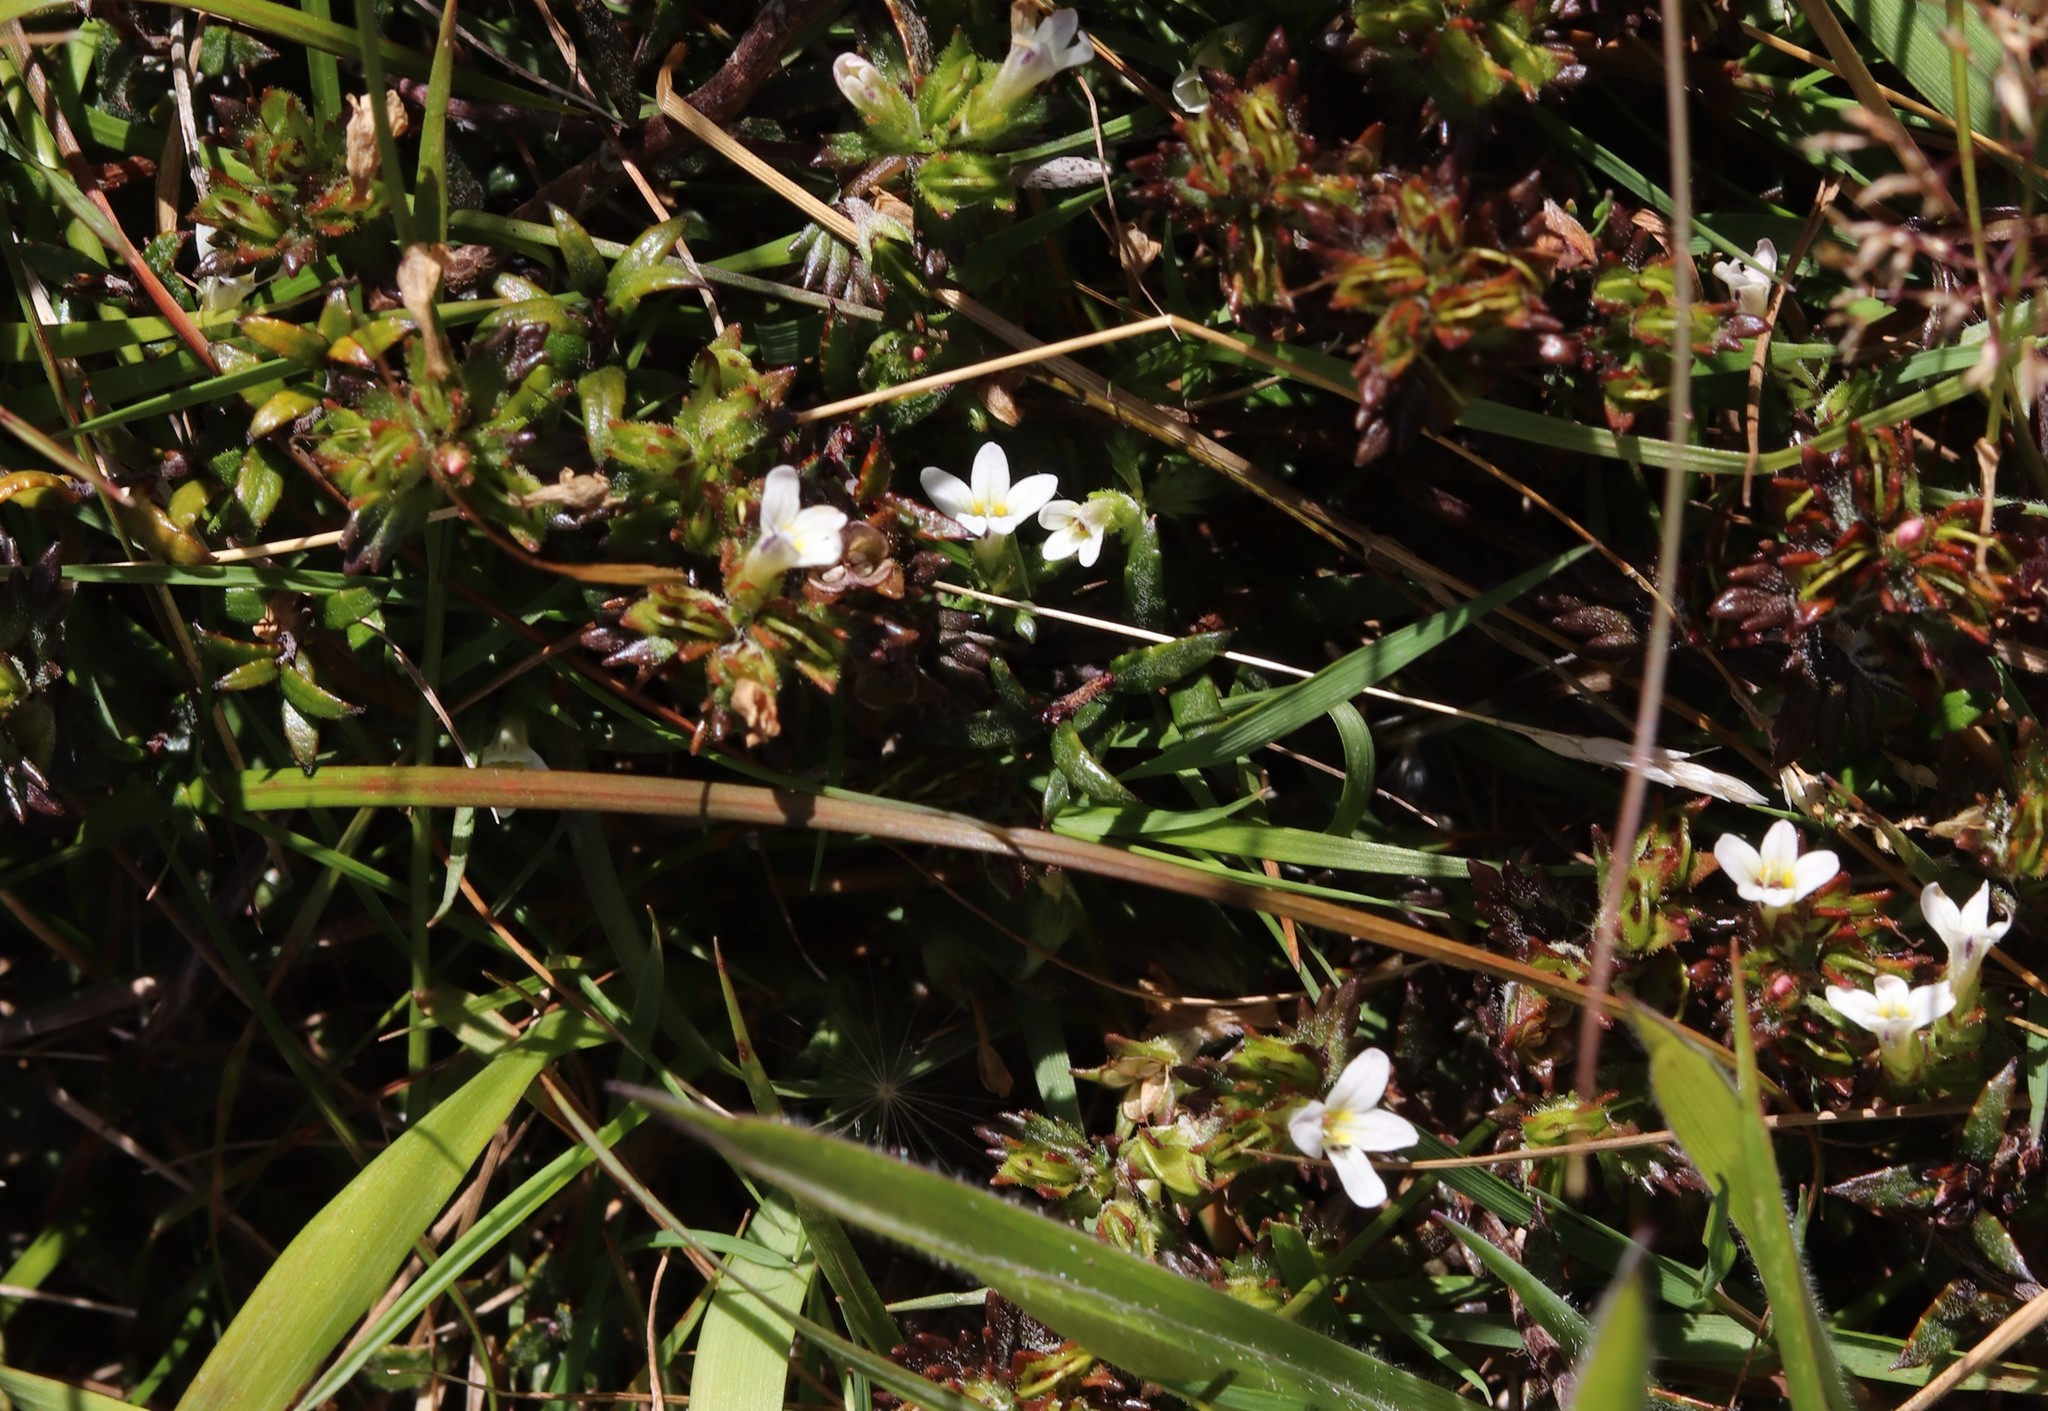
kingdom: Plantae
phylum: Tracheophyta
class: Magnoliopsida
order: Lamiales
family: Orobanchaceae
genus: Euphrasia
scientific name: Euphrasia zelandica
